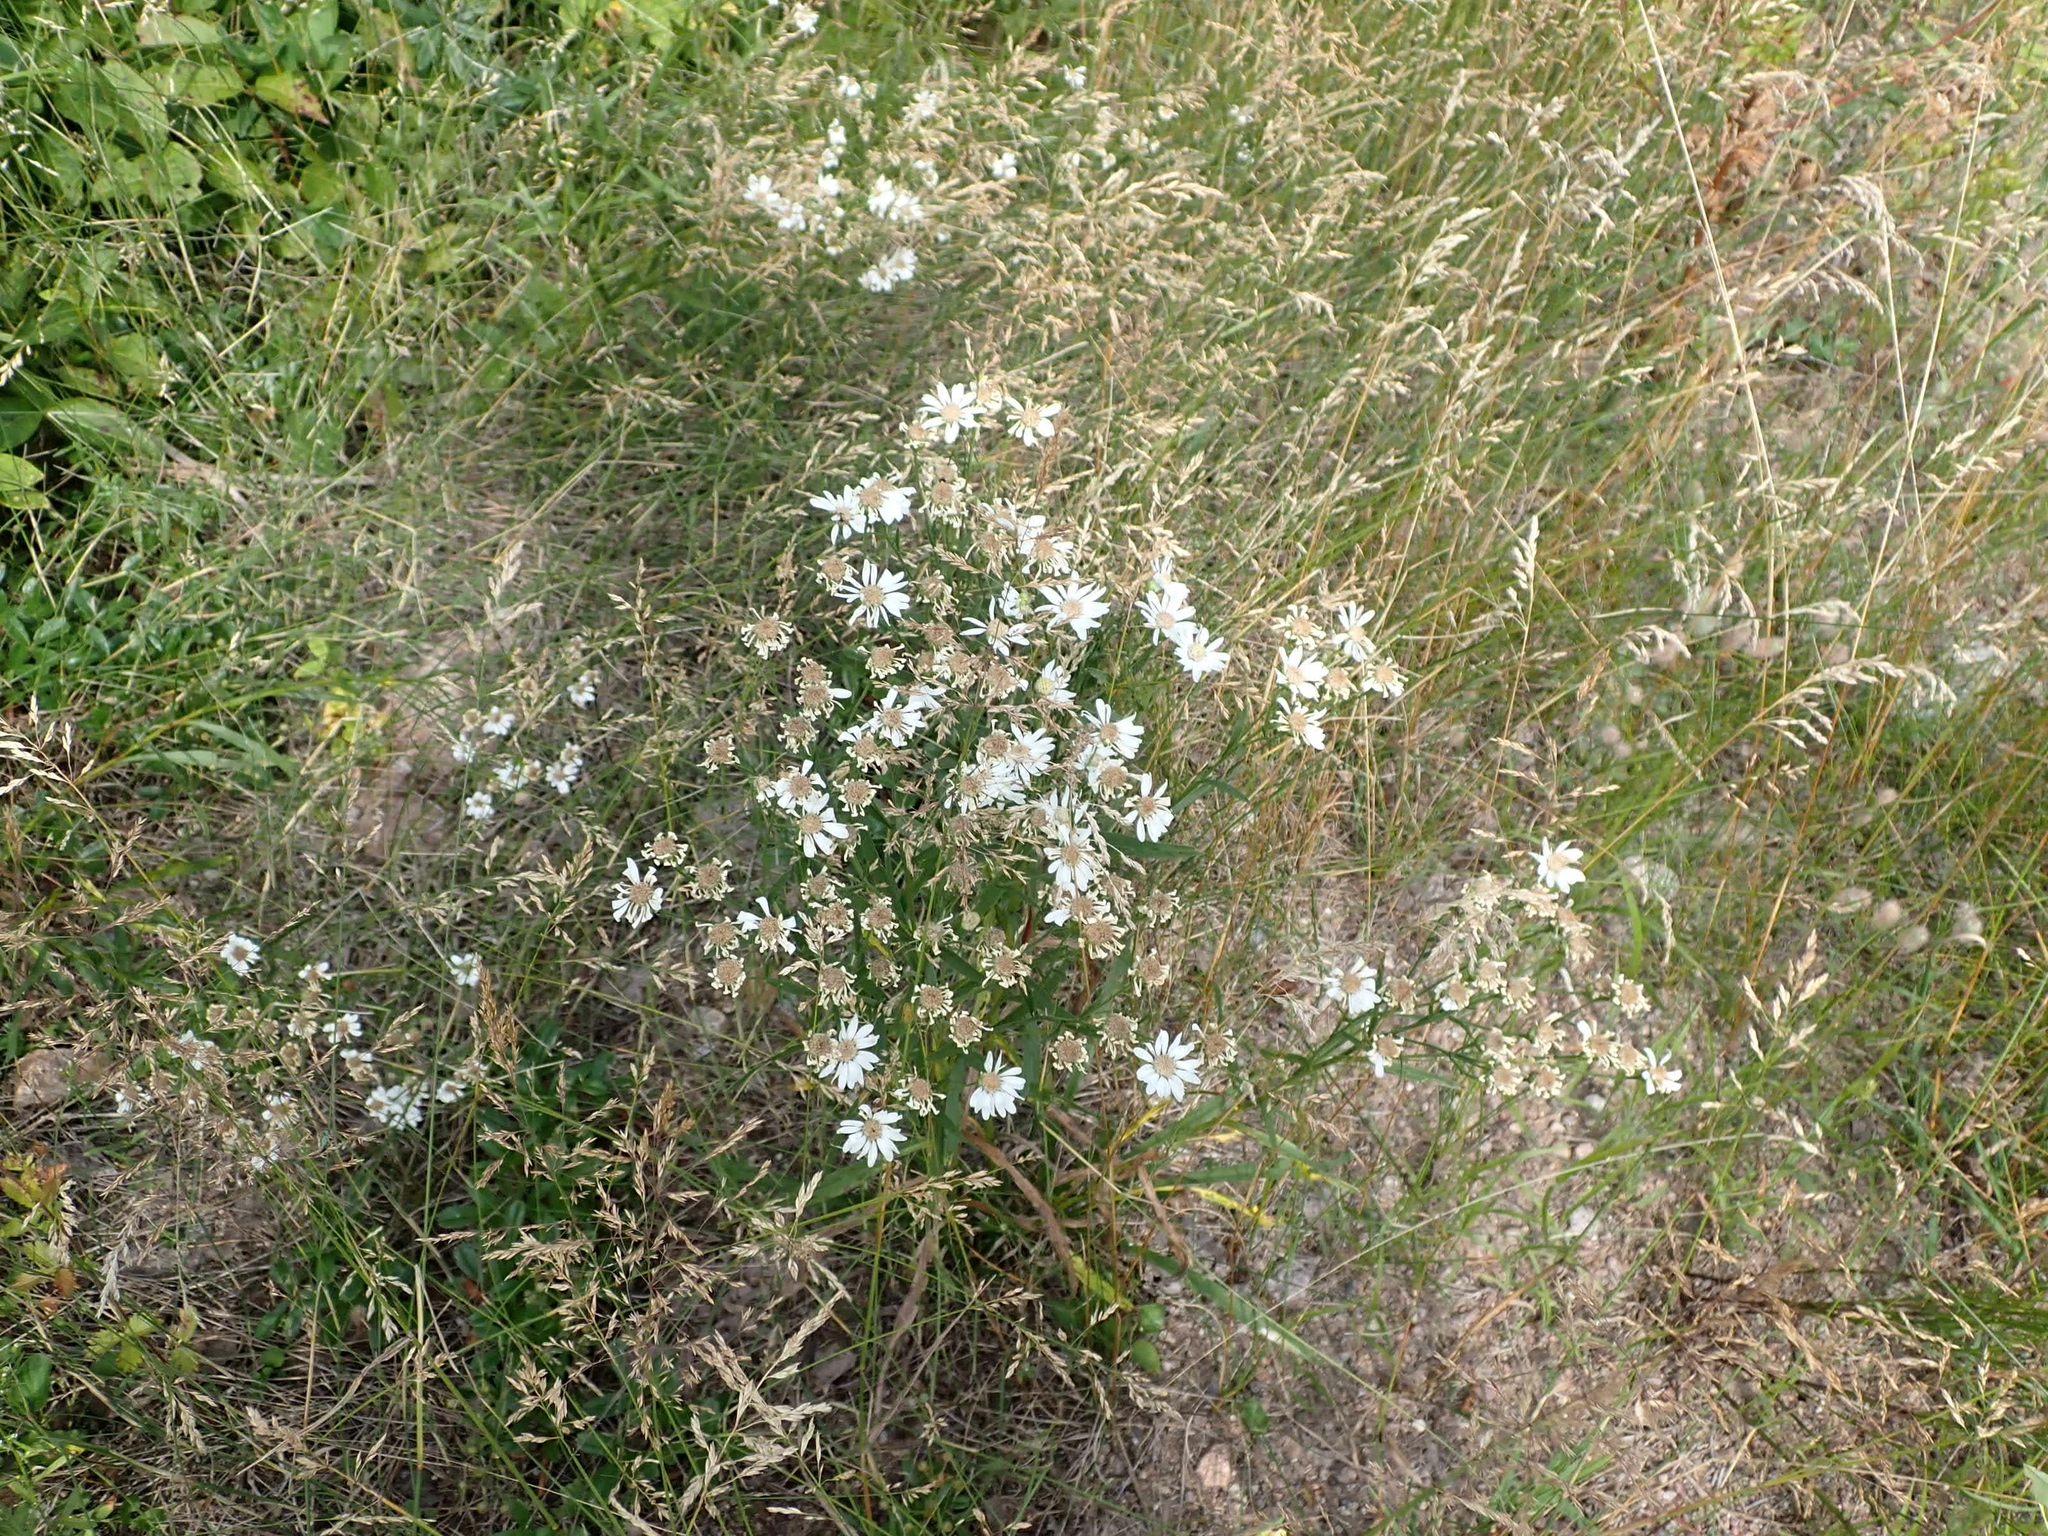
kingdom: Plantae
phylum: Tracheophyta
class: Magnoliopsida
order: Asterales
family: Asteraceae
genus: Solidago
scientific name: Solidago ptarmicoides
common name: White flat-top goldenrod
